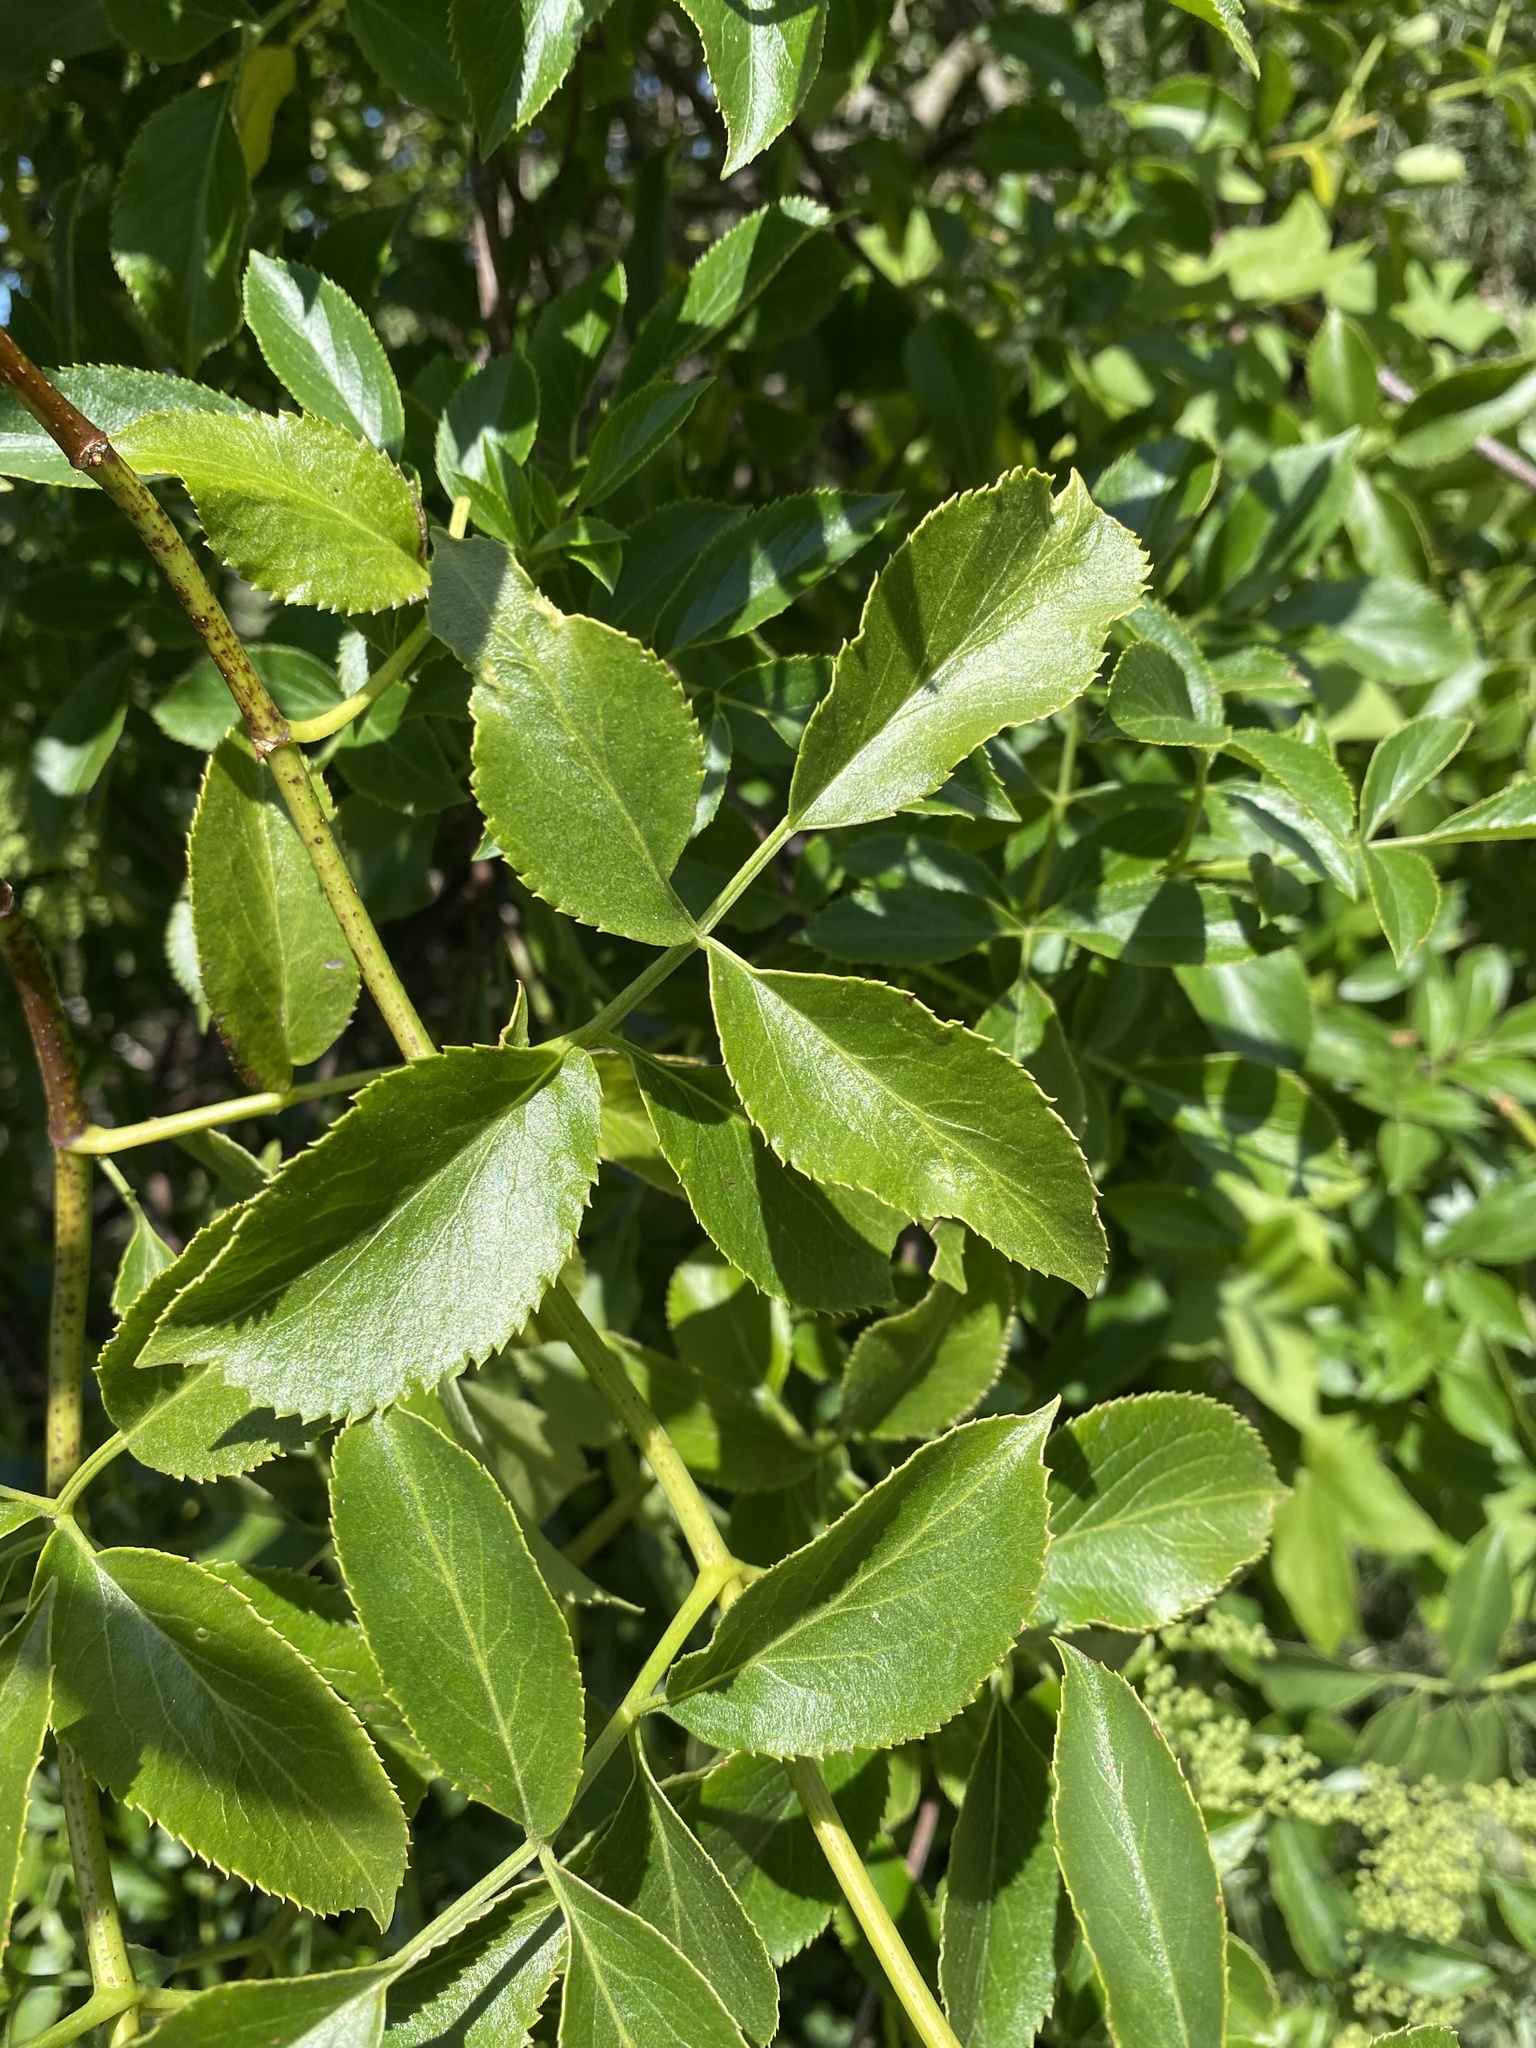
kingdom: Plantae
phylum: Tracheophyta
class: Magnoliopsida
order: Dipsacales
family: Viburnaceae
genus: Sambucus
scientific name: Sambucus cerulea
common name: Blue elder
